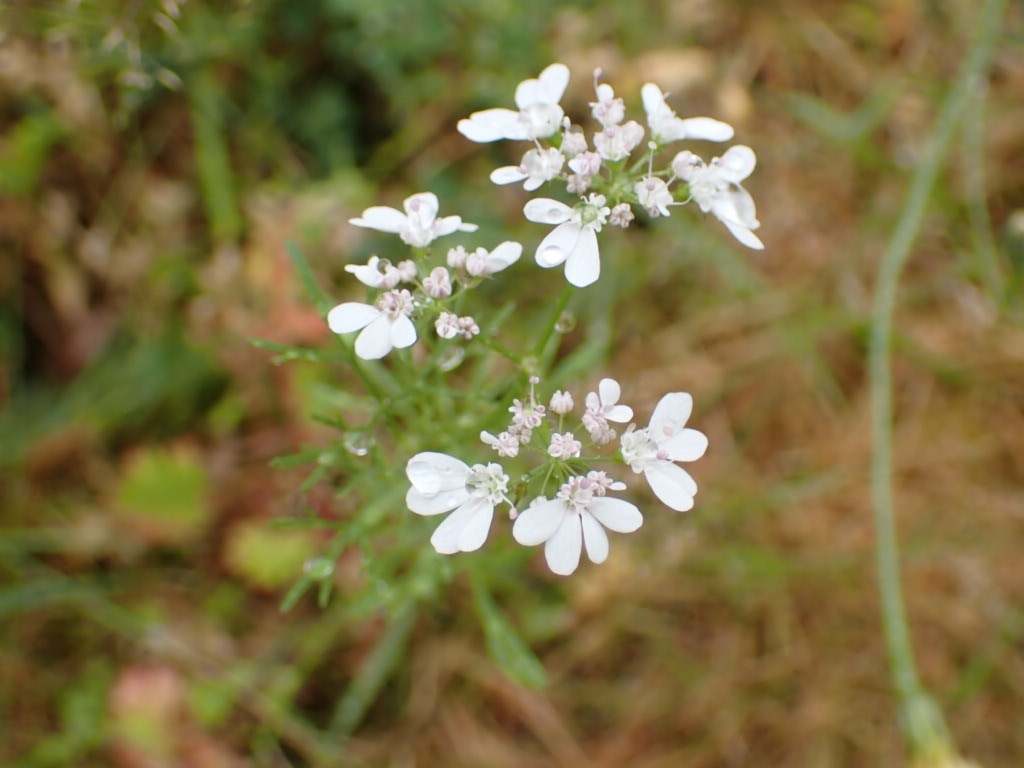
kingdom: Plantae
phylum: Tracheophyta
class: Magnoliopsida
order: Apiales
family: Apiaceae
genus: Coriandrum
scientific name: Coriandrum sativum
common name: Coriander
